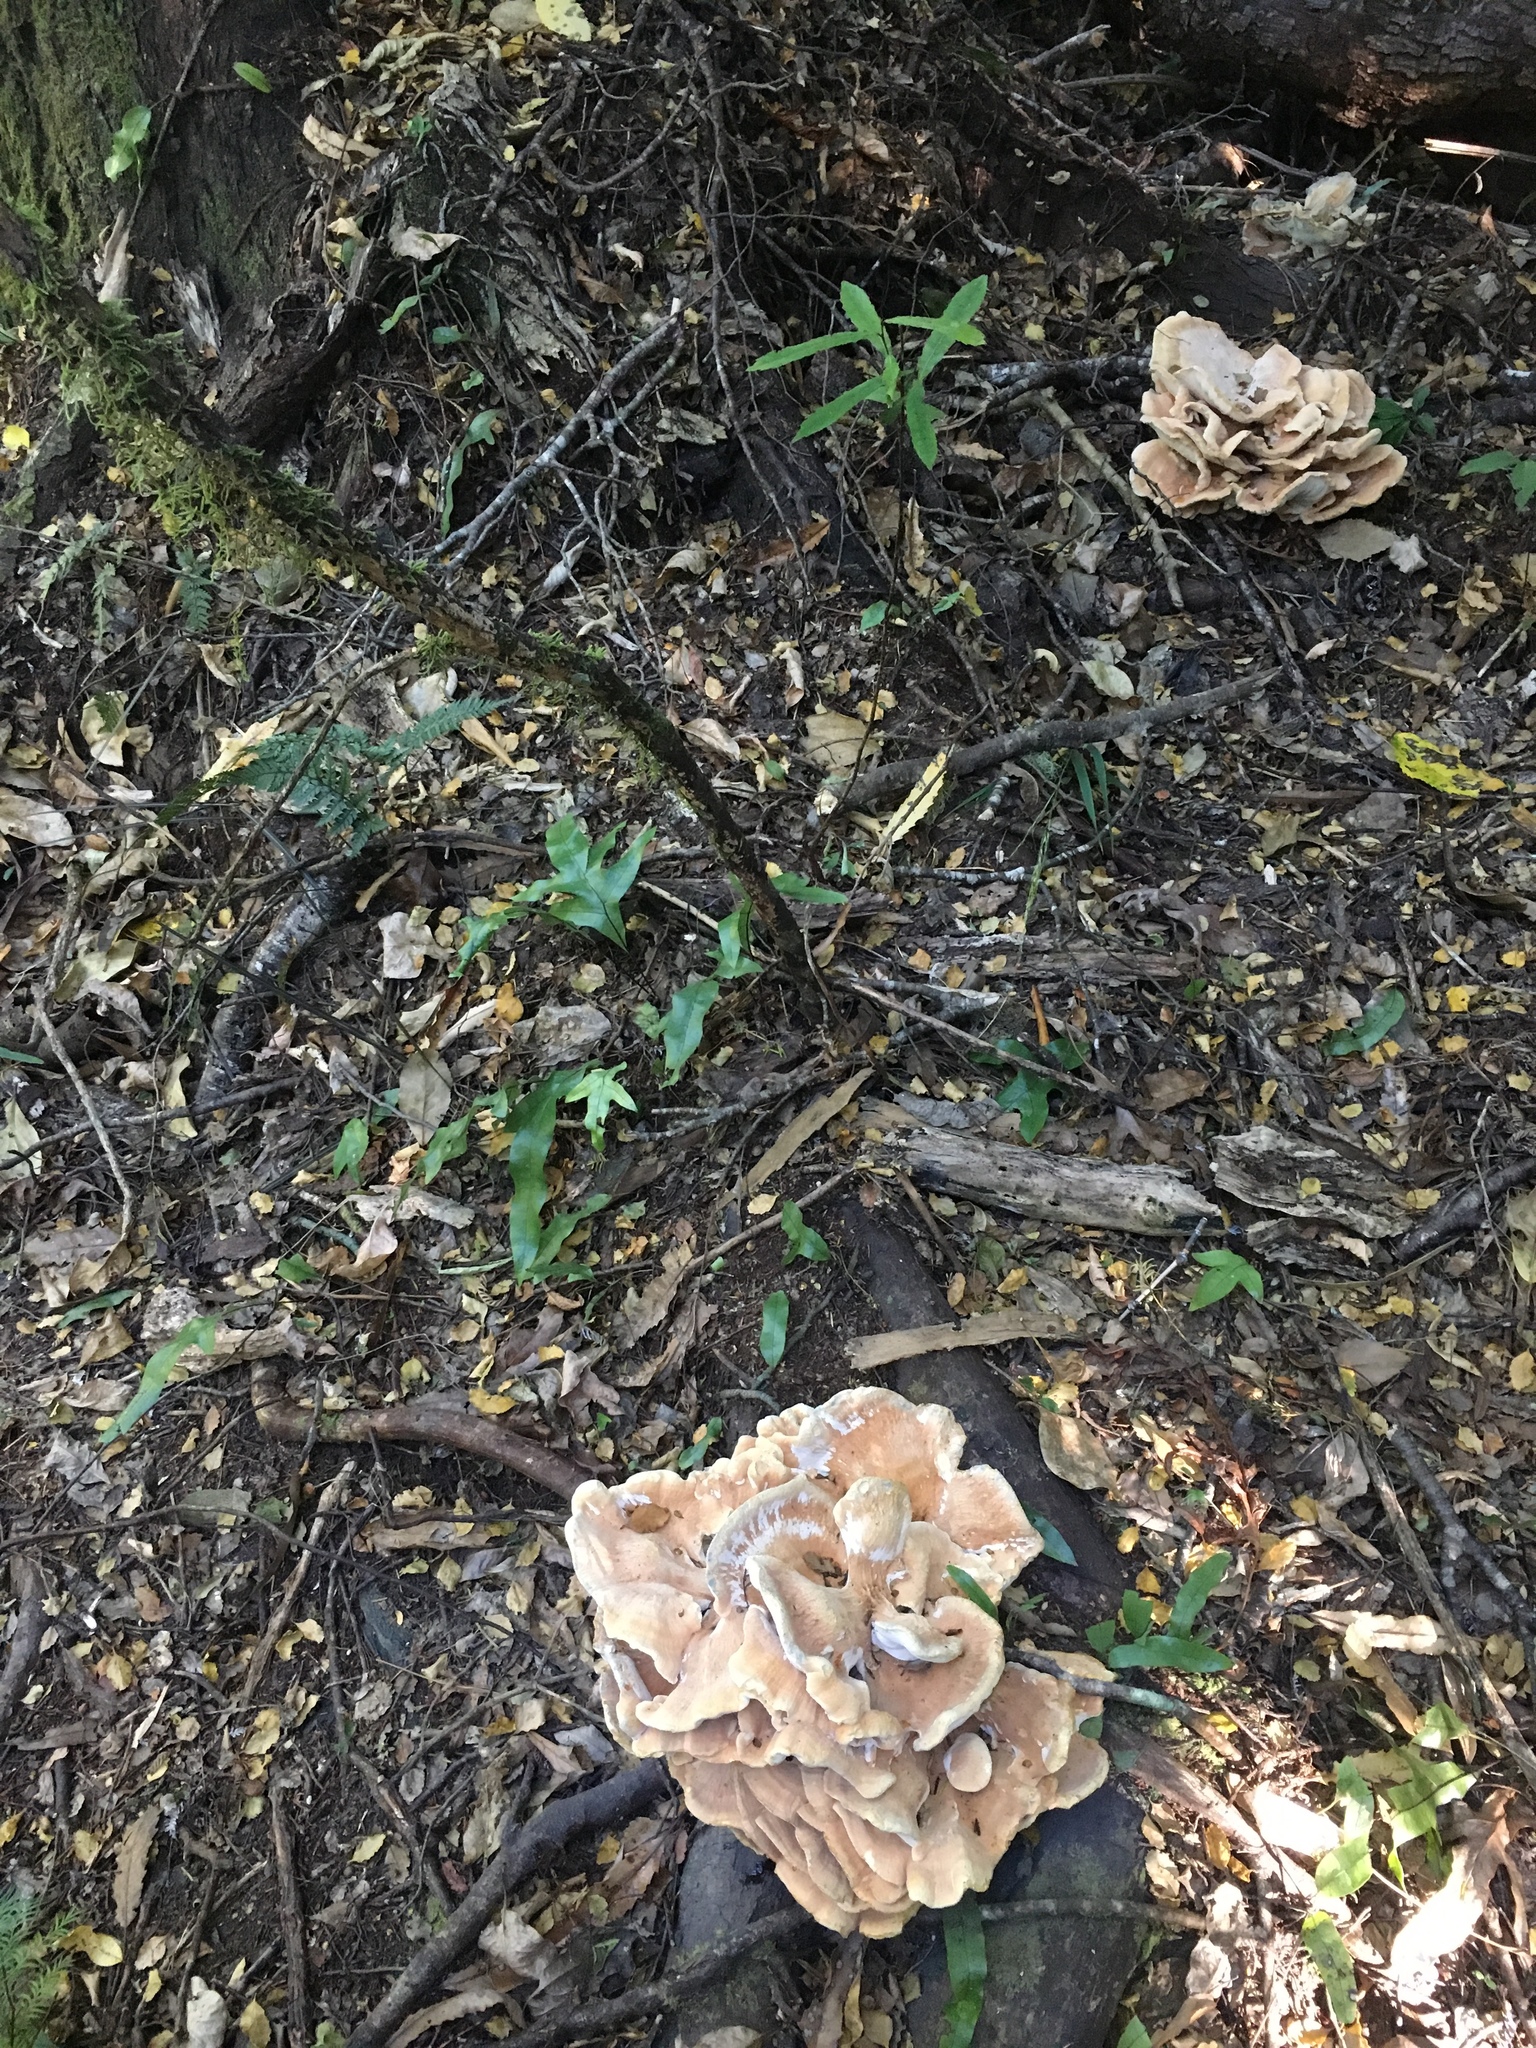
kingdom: Fungi
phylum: Basidiomycota
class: Agaricomycetes
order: Russulales
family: Bondarzewiaceae
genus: Bondarzewia
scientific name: Bondarzewia kirkii
